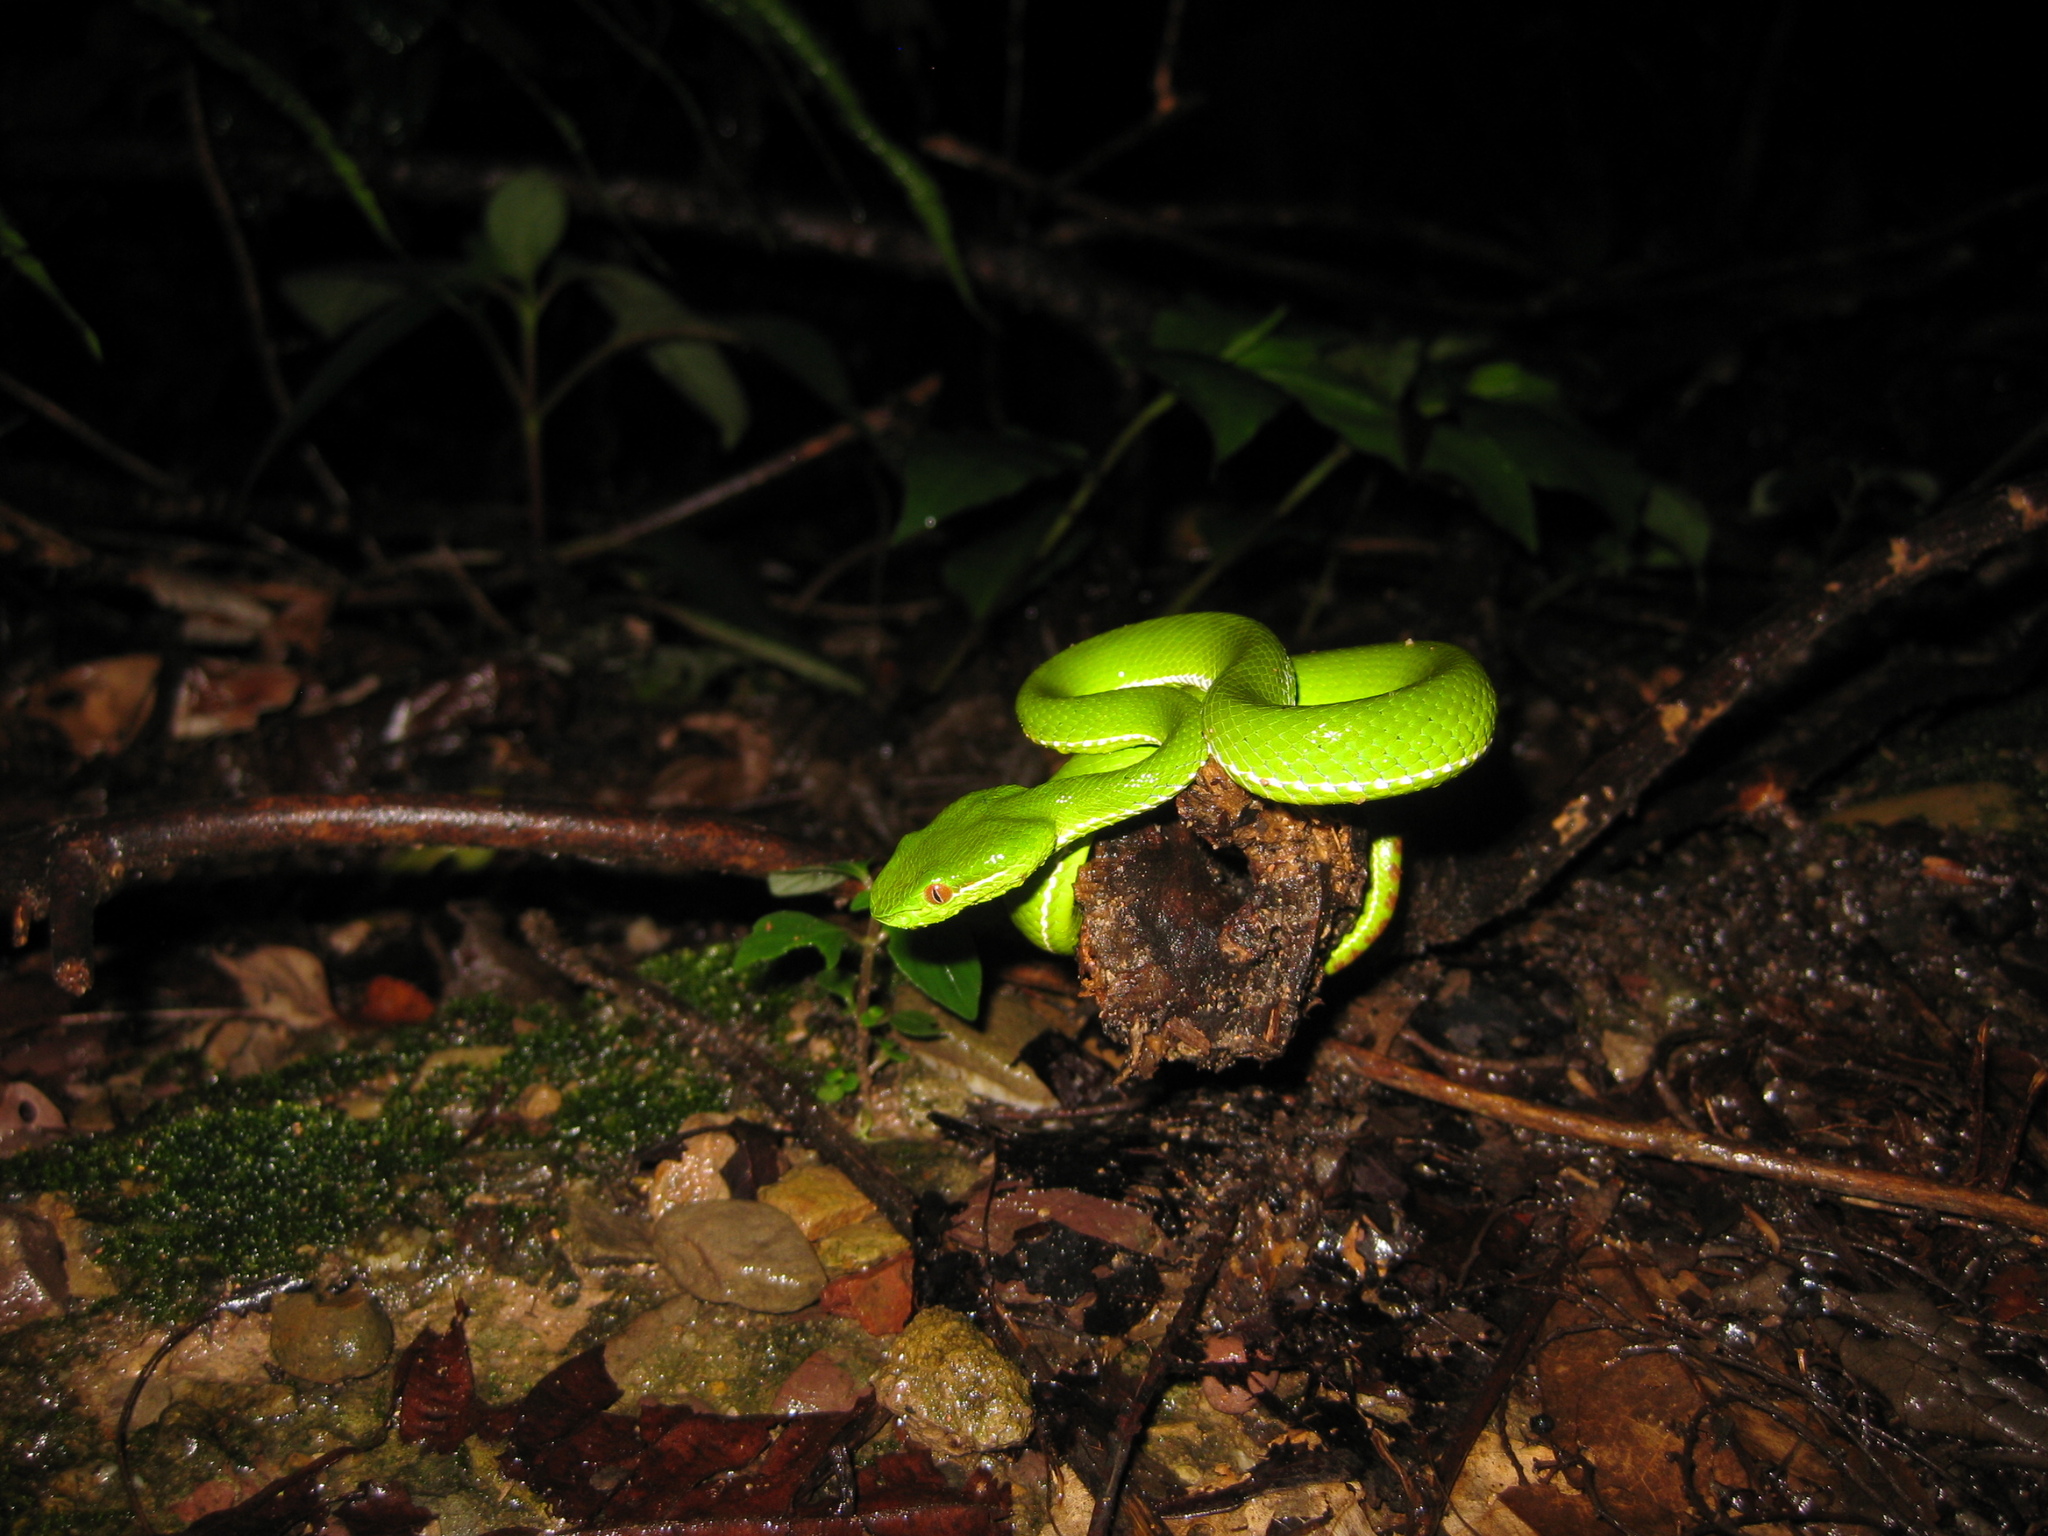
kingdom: Animalia
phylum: Chordata
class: Squamata
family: Viperidae
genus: Trimeresurus
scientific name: Trimeresurus popeiorum
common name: Pope's bamboo pit viper
